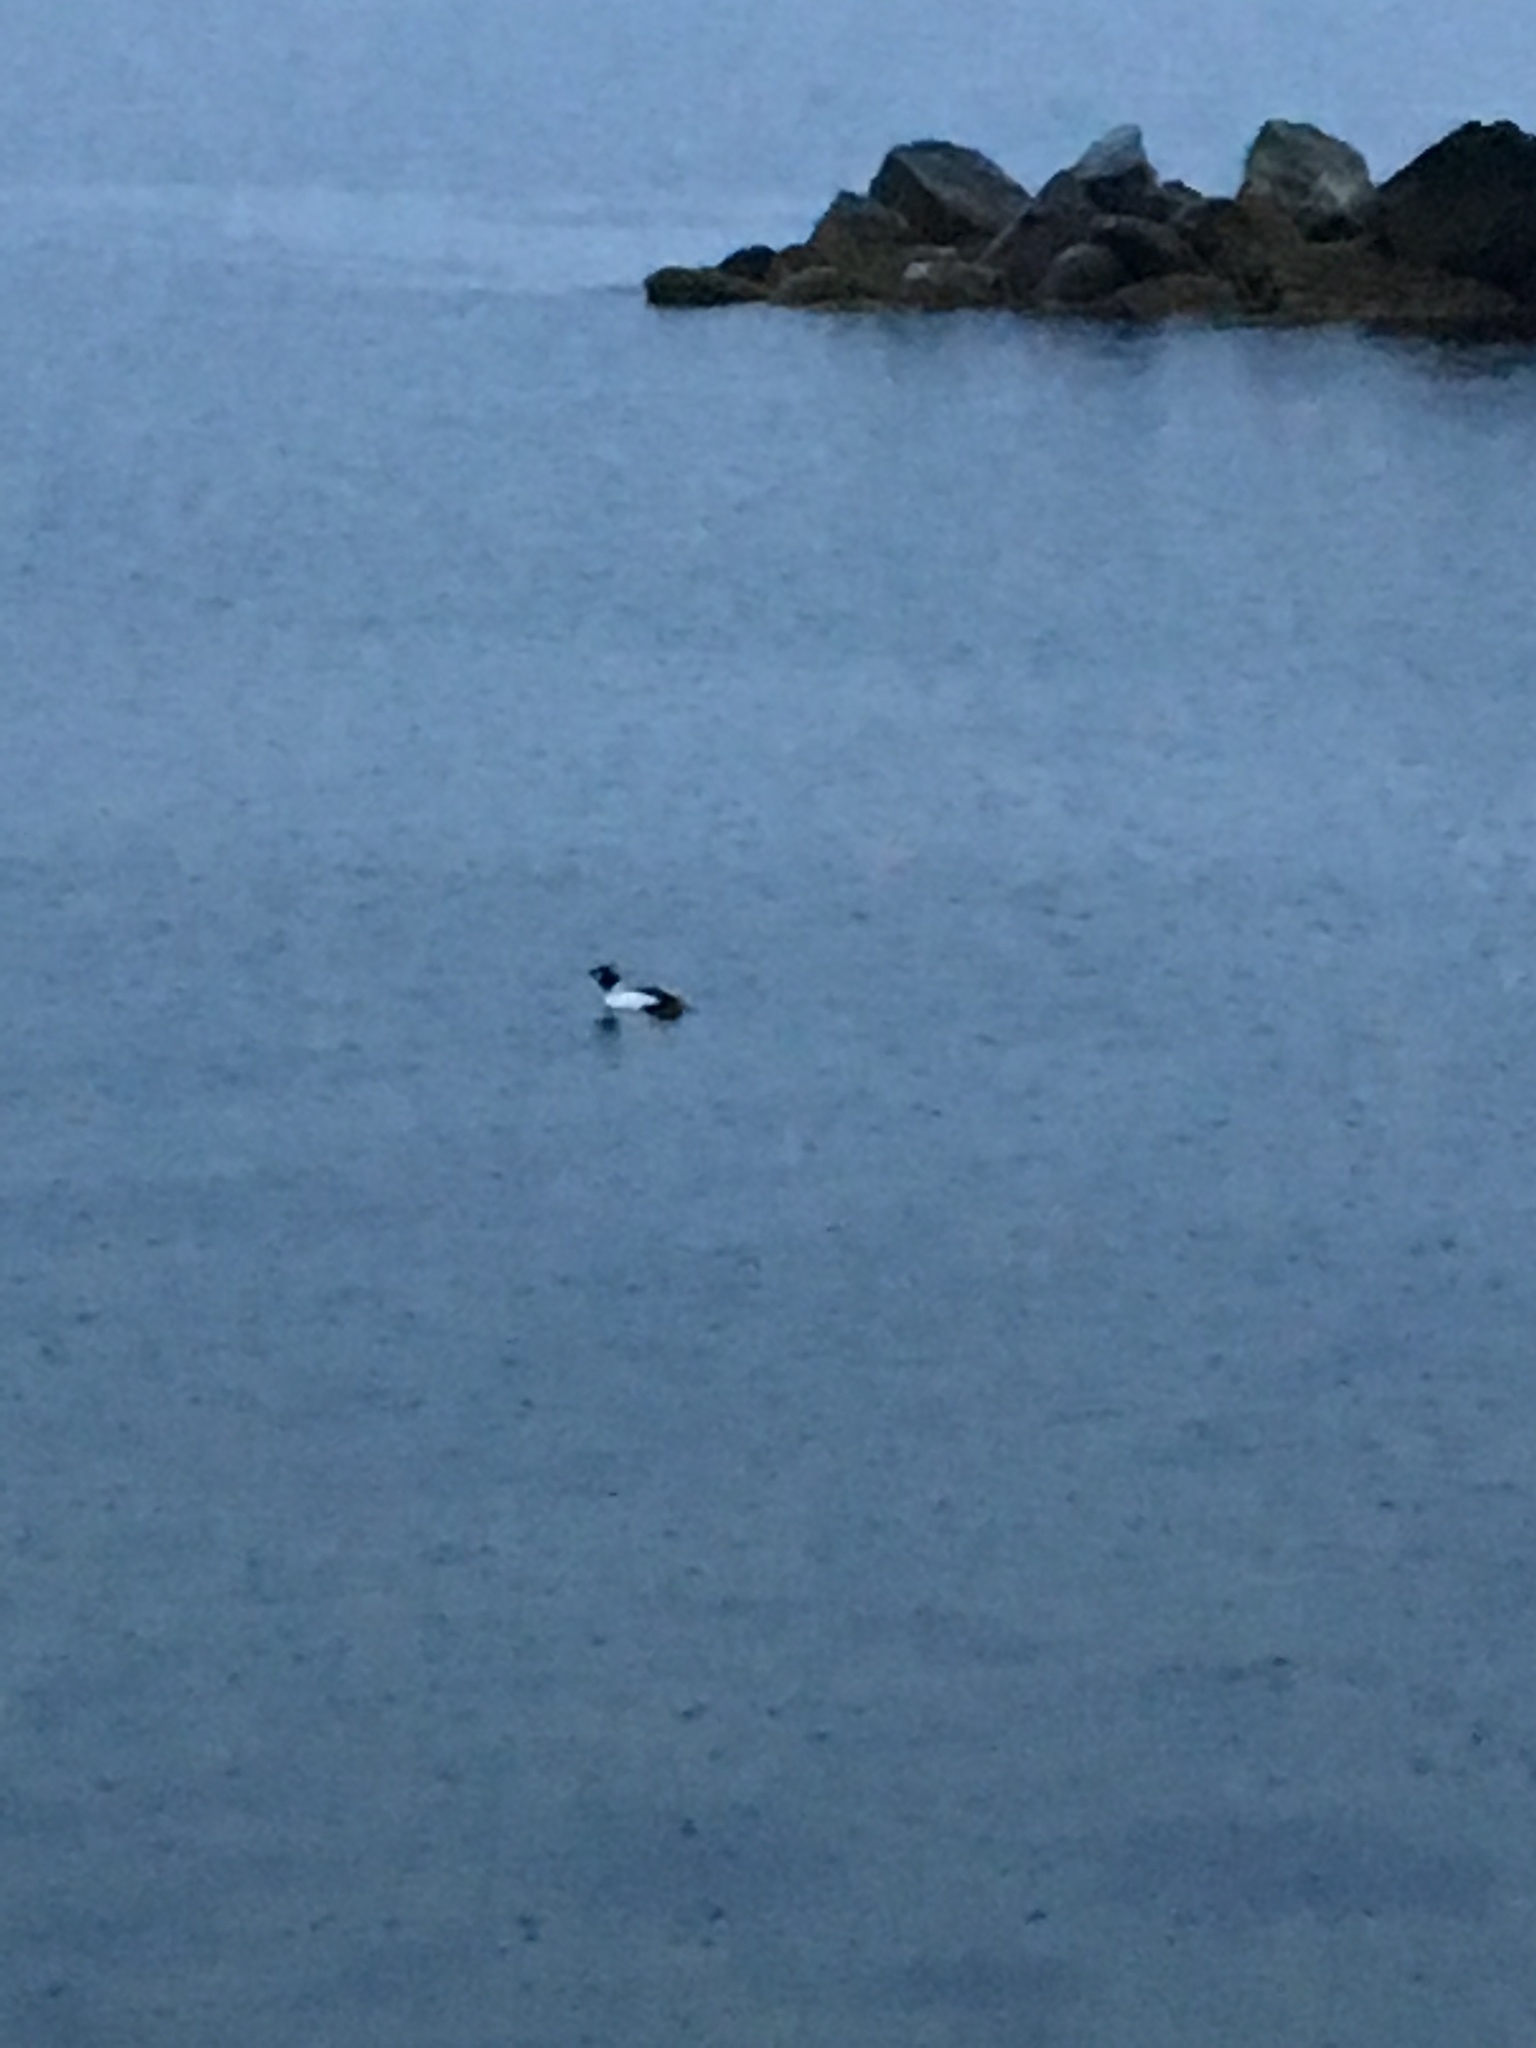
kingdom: Animalia
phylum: Chordata
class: Aves
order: Anseriformes
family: Anatidae
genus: Bucephala
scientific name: Bucephala clangula
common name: Common goldeneye
